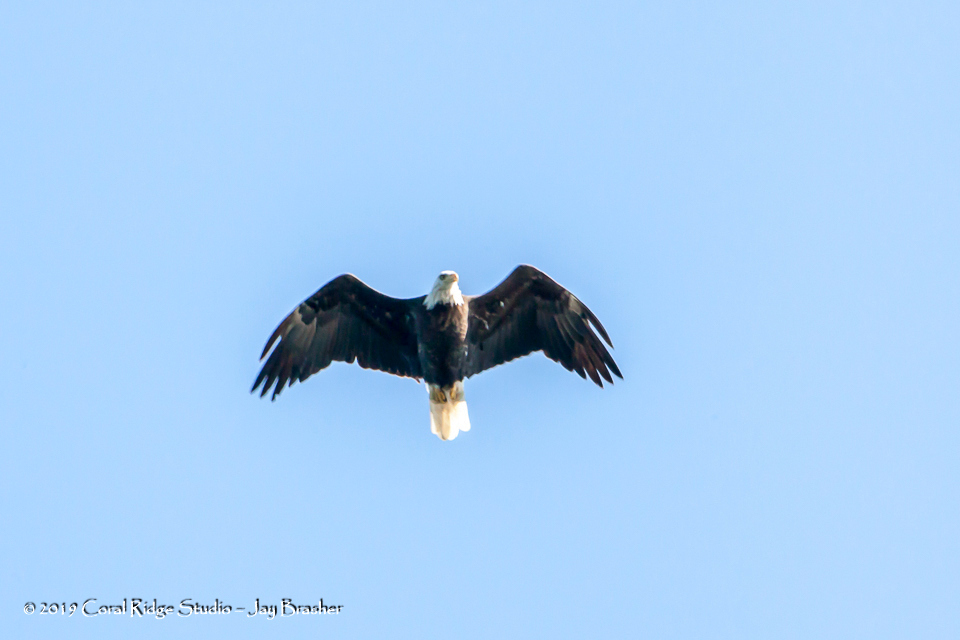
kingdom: Animalia
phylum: Chordata
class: Aves
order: Accipitriformes
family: Accipitridae
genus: Haliaeetus
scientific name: Haliaeetus leucocephalus
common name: Bald eagle
